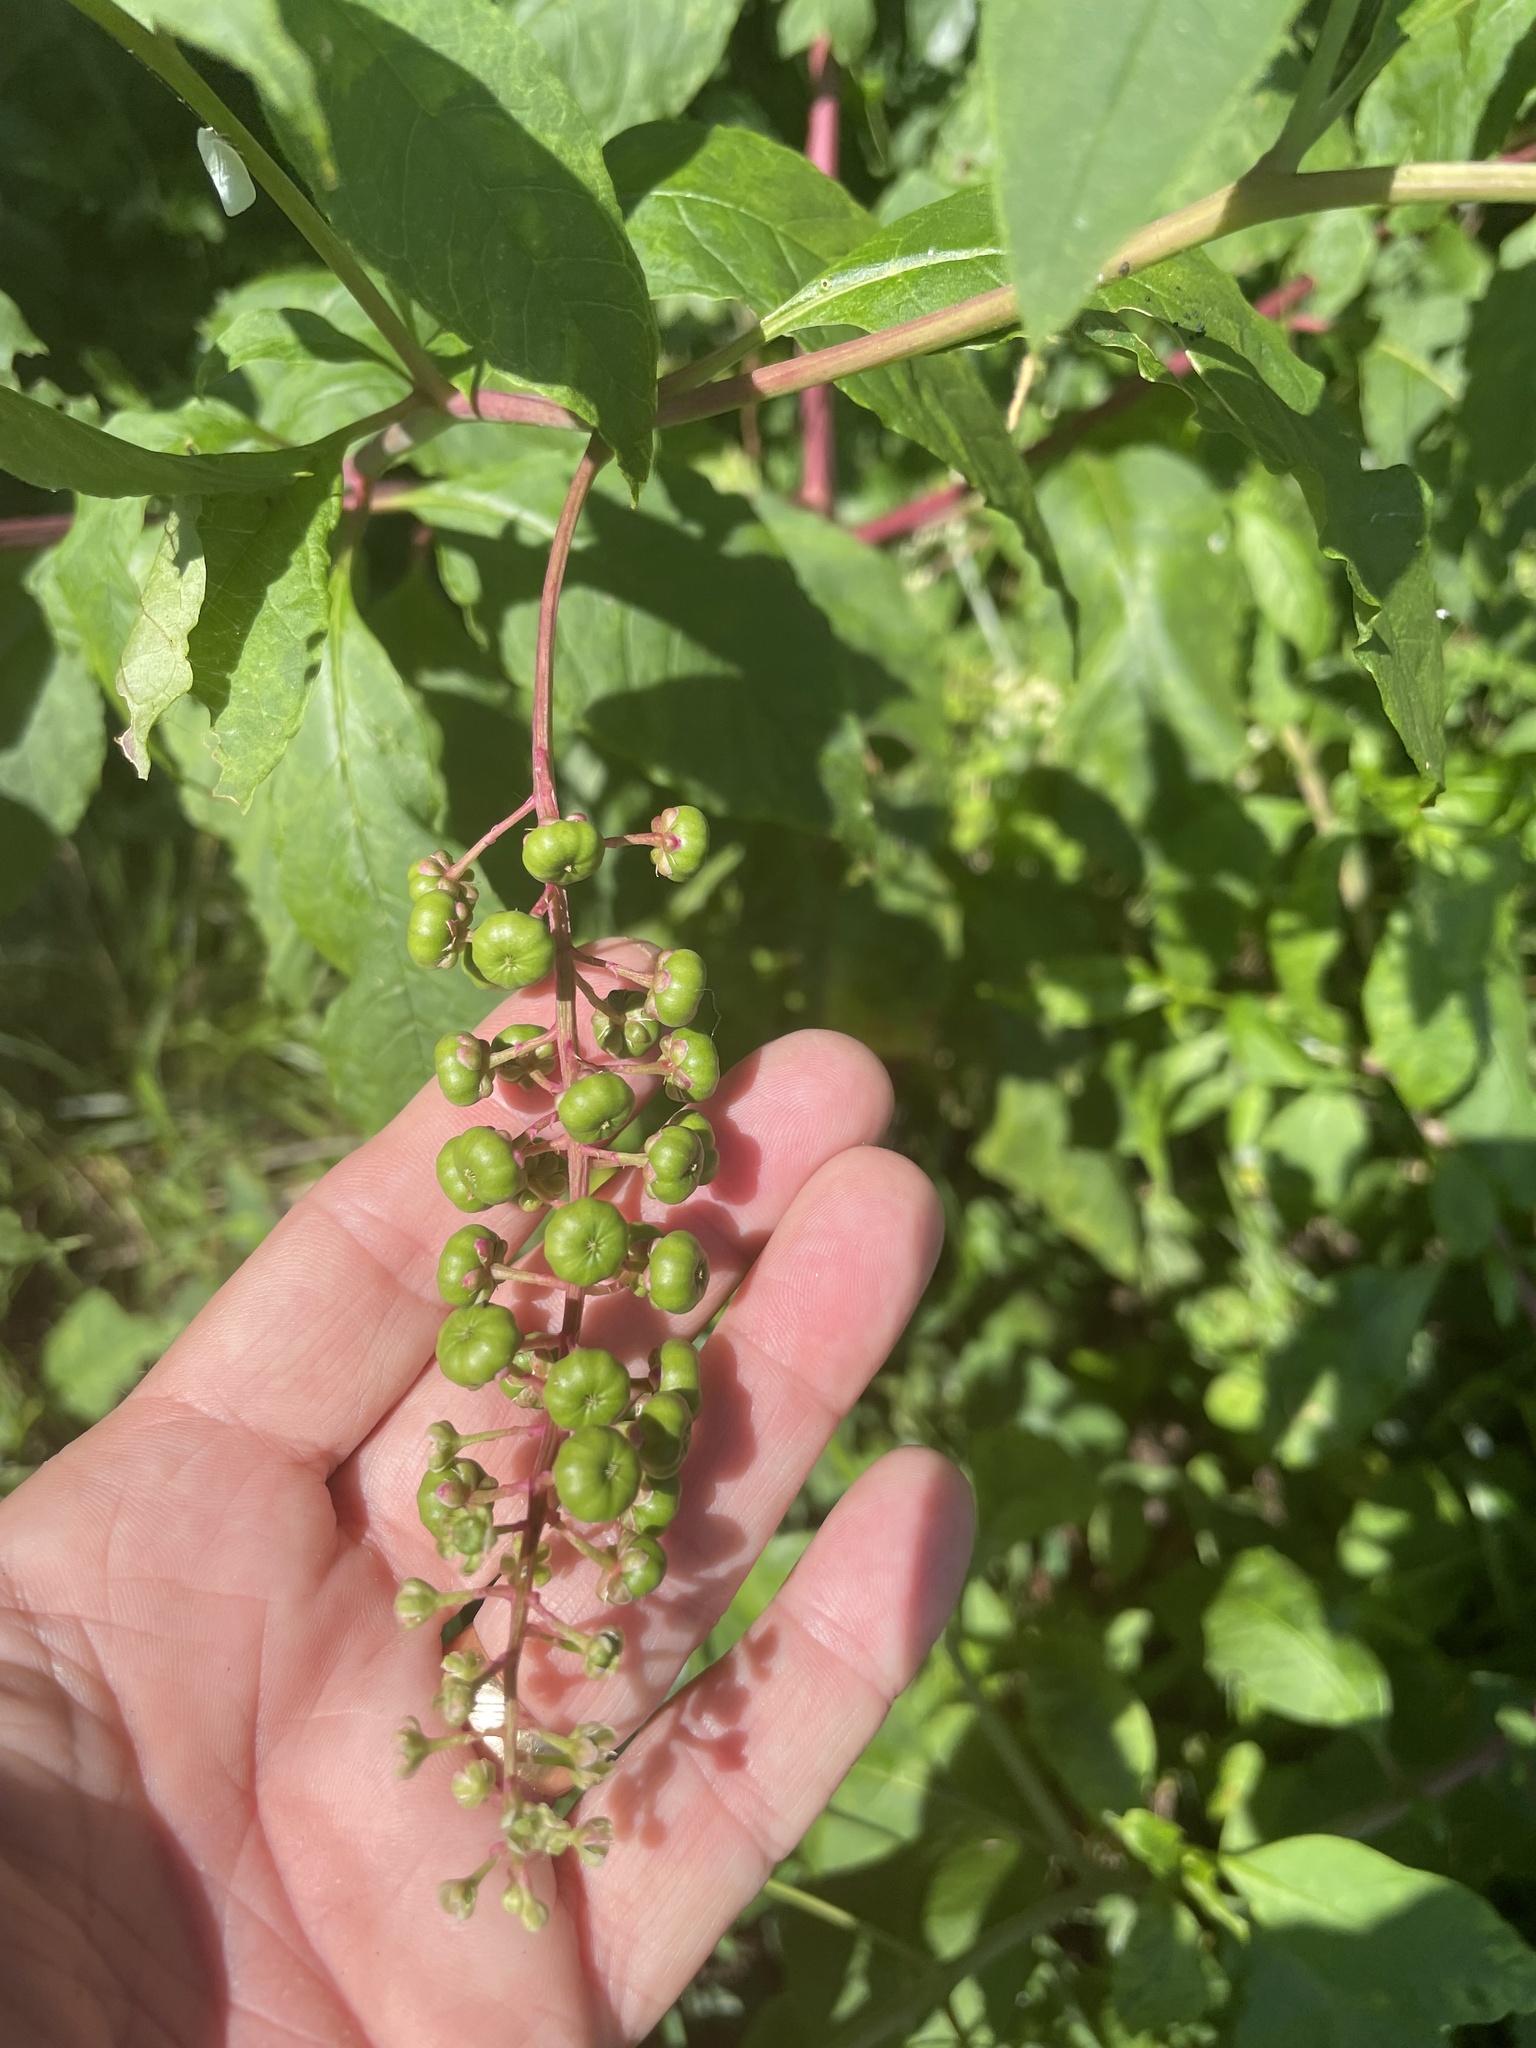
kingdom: Plantae
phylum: Tracheophyta
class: Magnoliopsida
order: Caryophyllales
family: Phytolaccaceae
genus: Phytolacca
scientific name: Phytolacca americana
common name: American pokeweed
